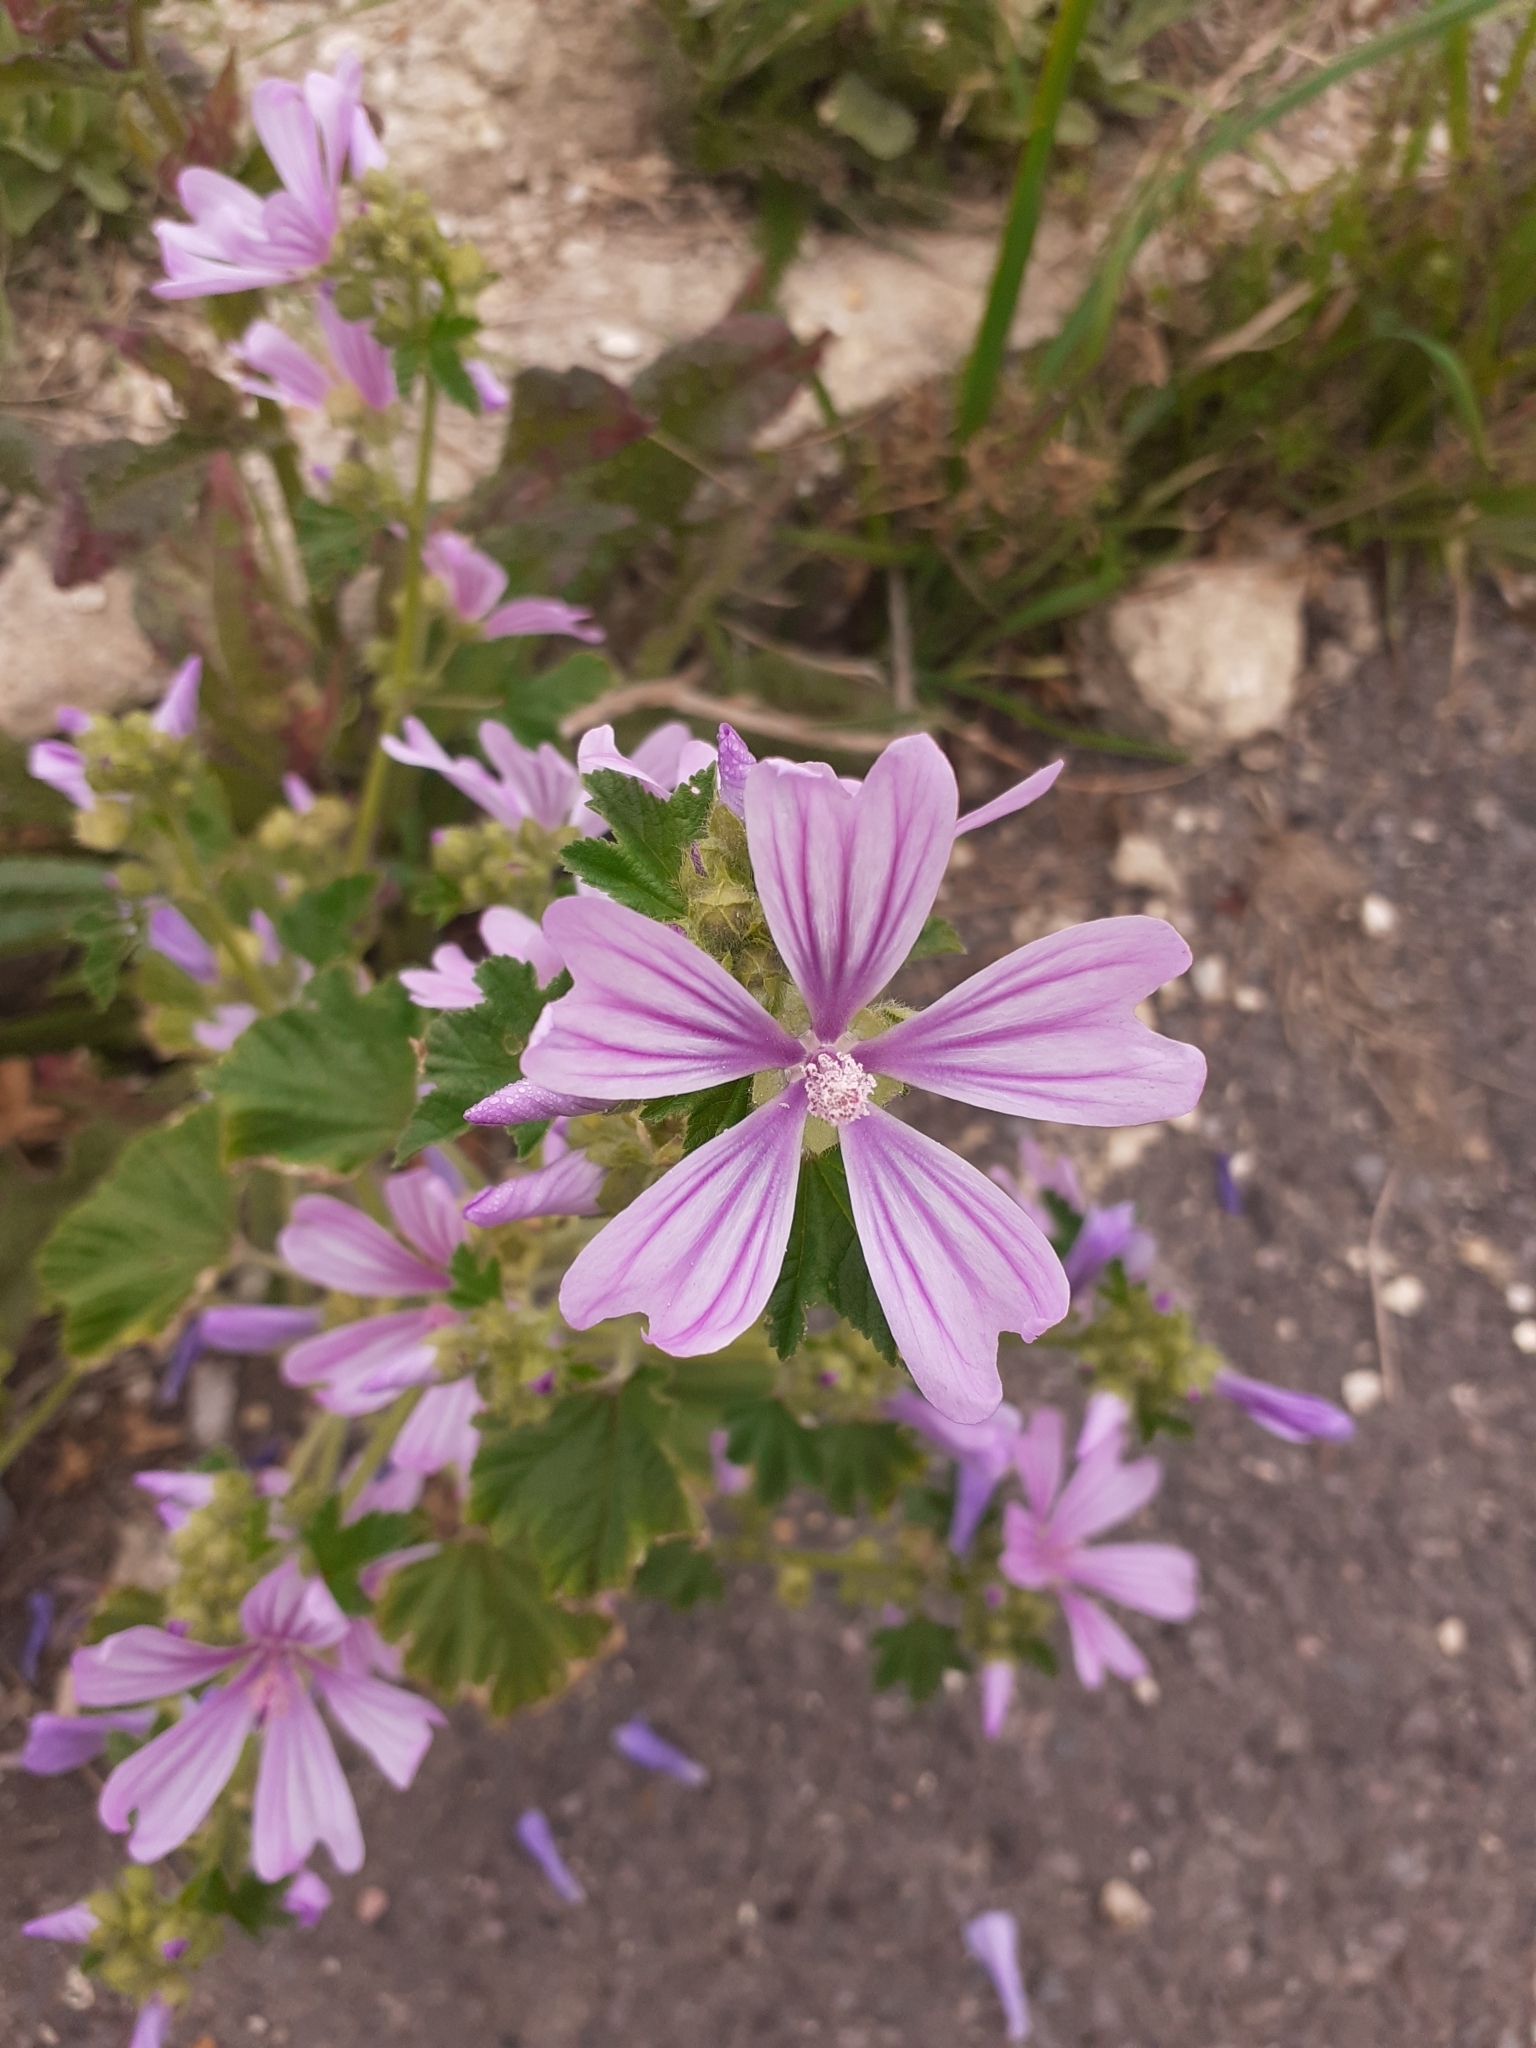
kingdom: Plantae
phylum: Tracheophyta
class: Magnoliopsida
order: Malvales
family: Malvaceae
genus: Malva
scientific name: Malva sylvestris
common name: Common mallow
